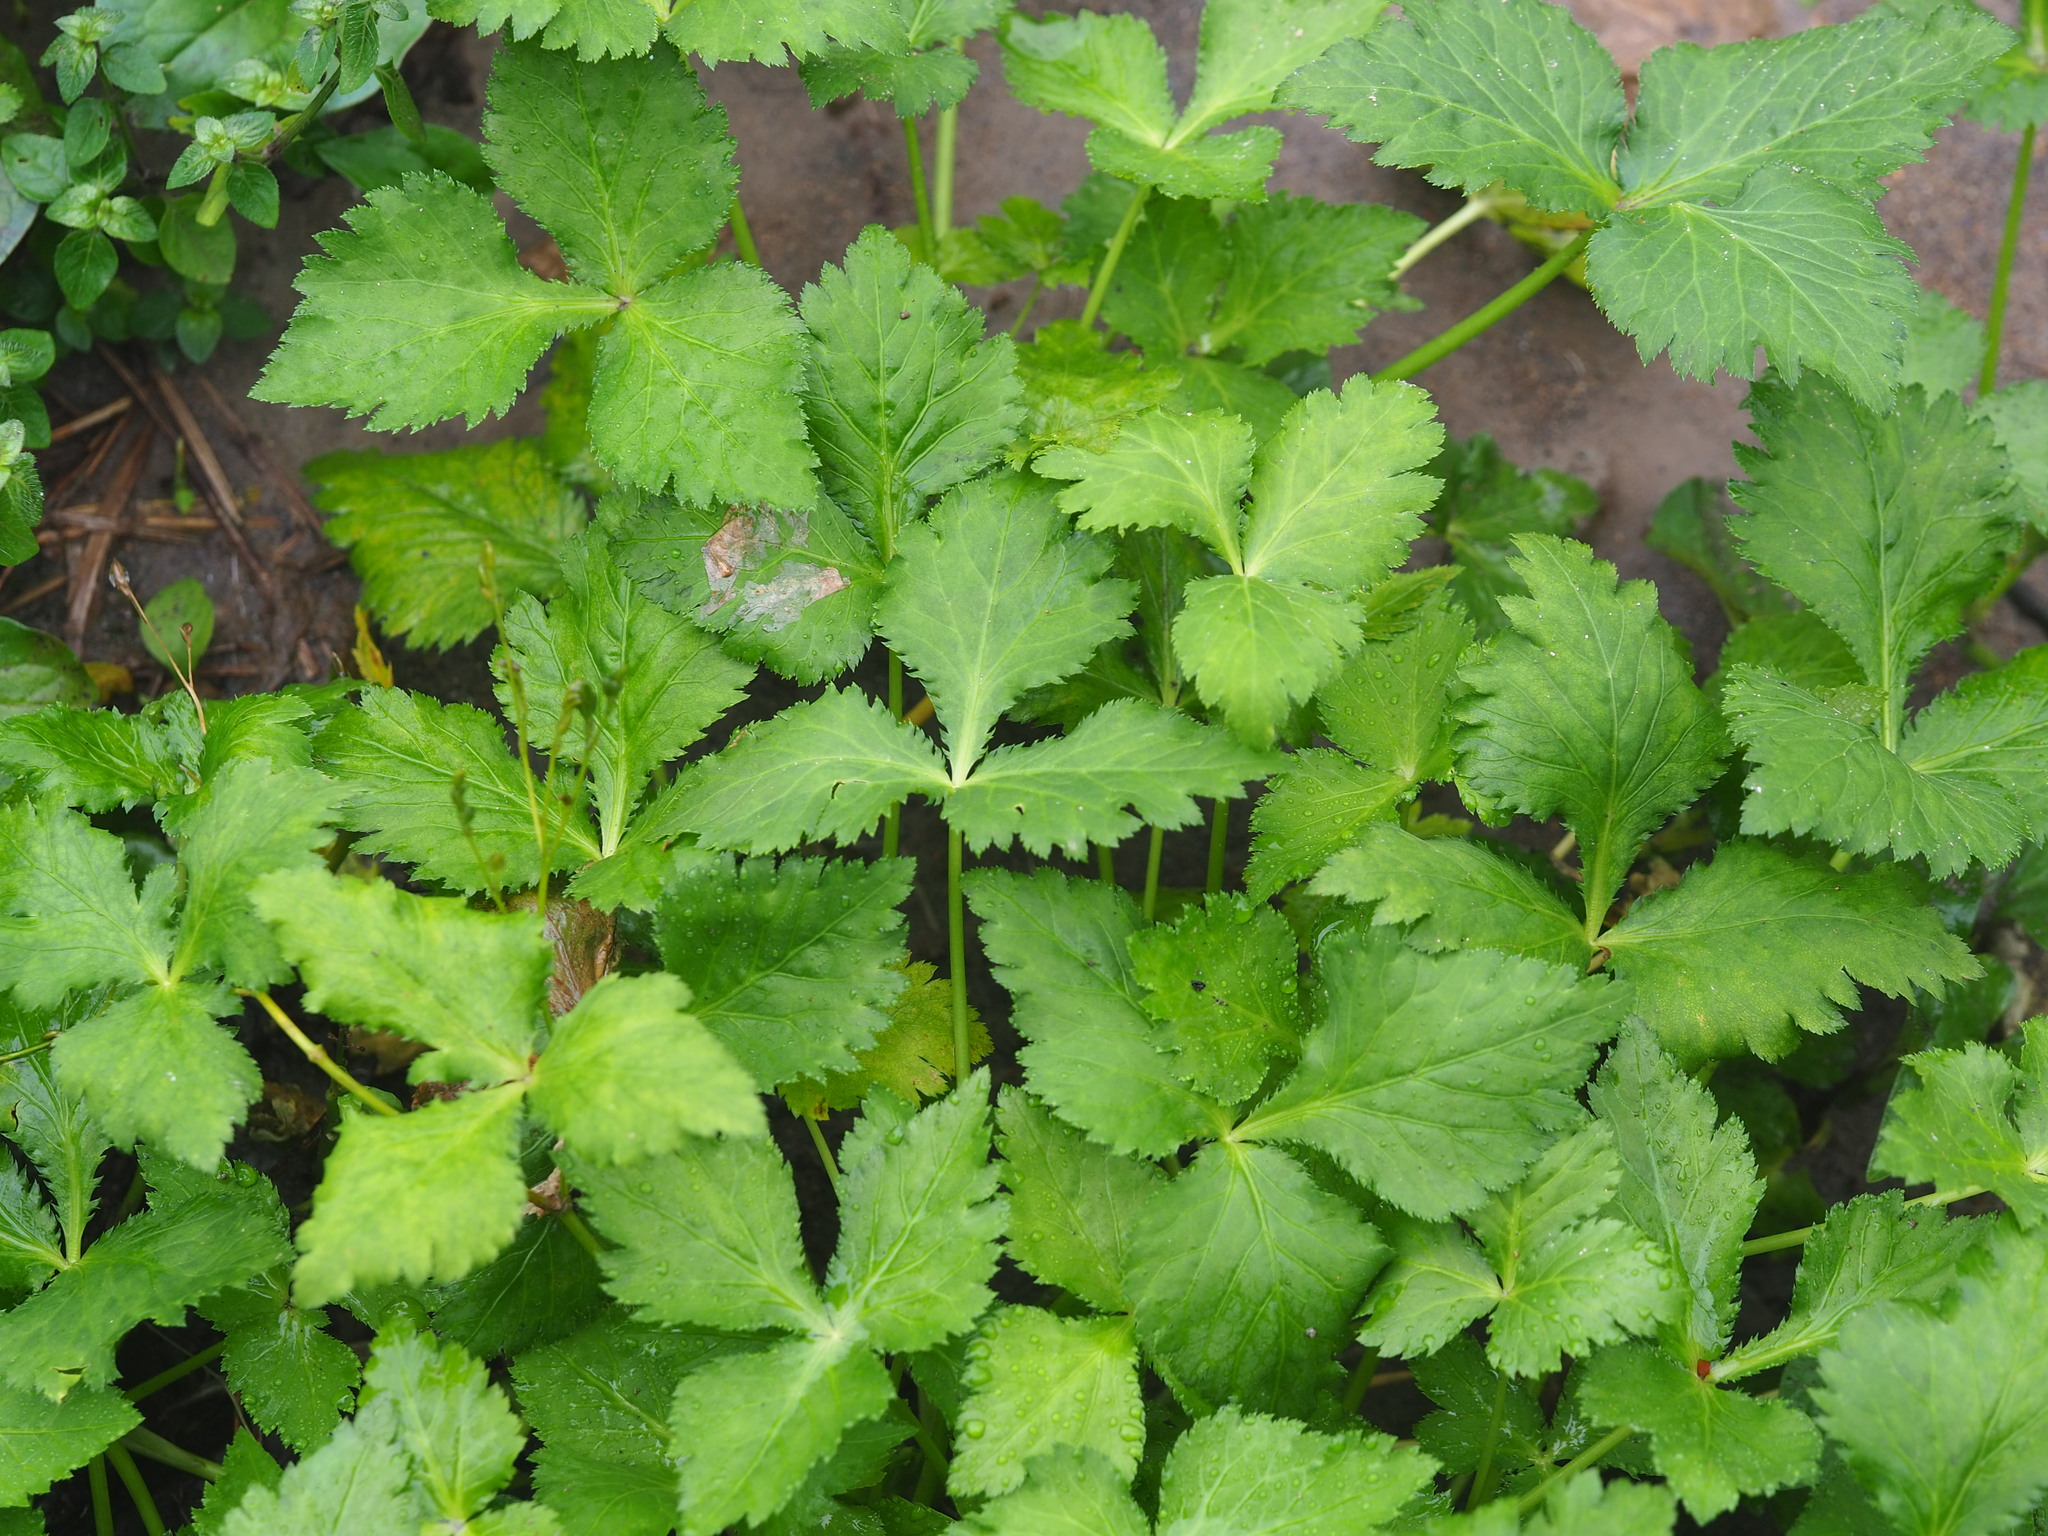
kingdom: Plantae
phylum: Tracheophyta
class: Magnoliopsida
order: Apiales
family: Apiaceae
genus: Cryptotaenia
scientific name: Cryptotaenia japonica
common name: Japanese cryptotaenia
